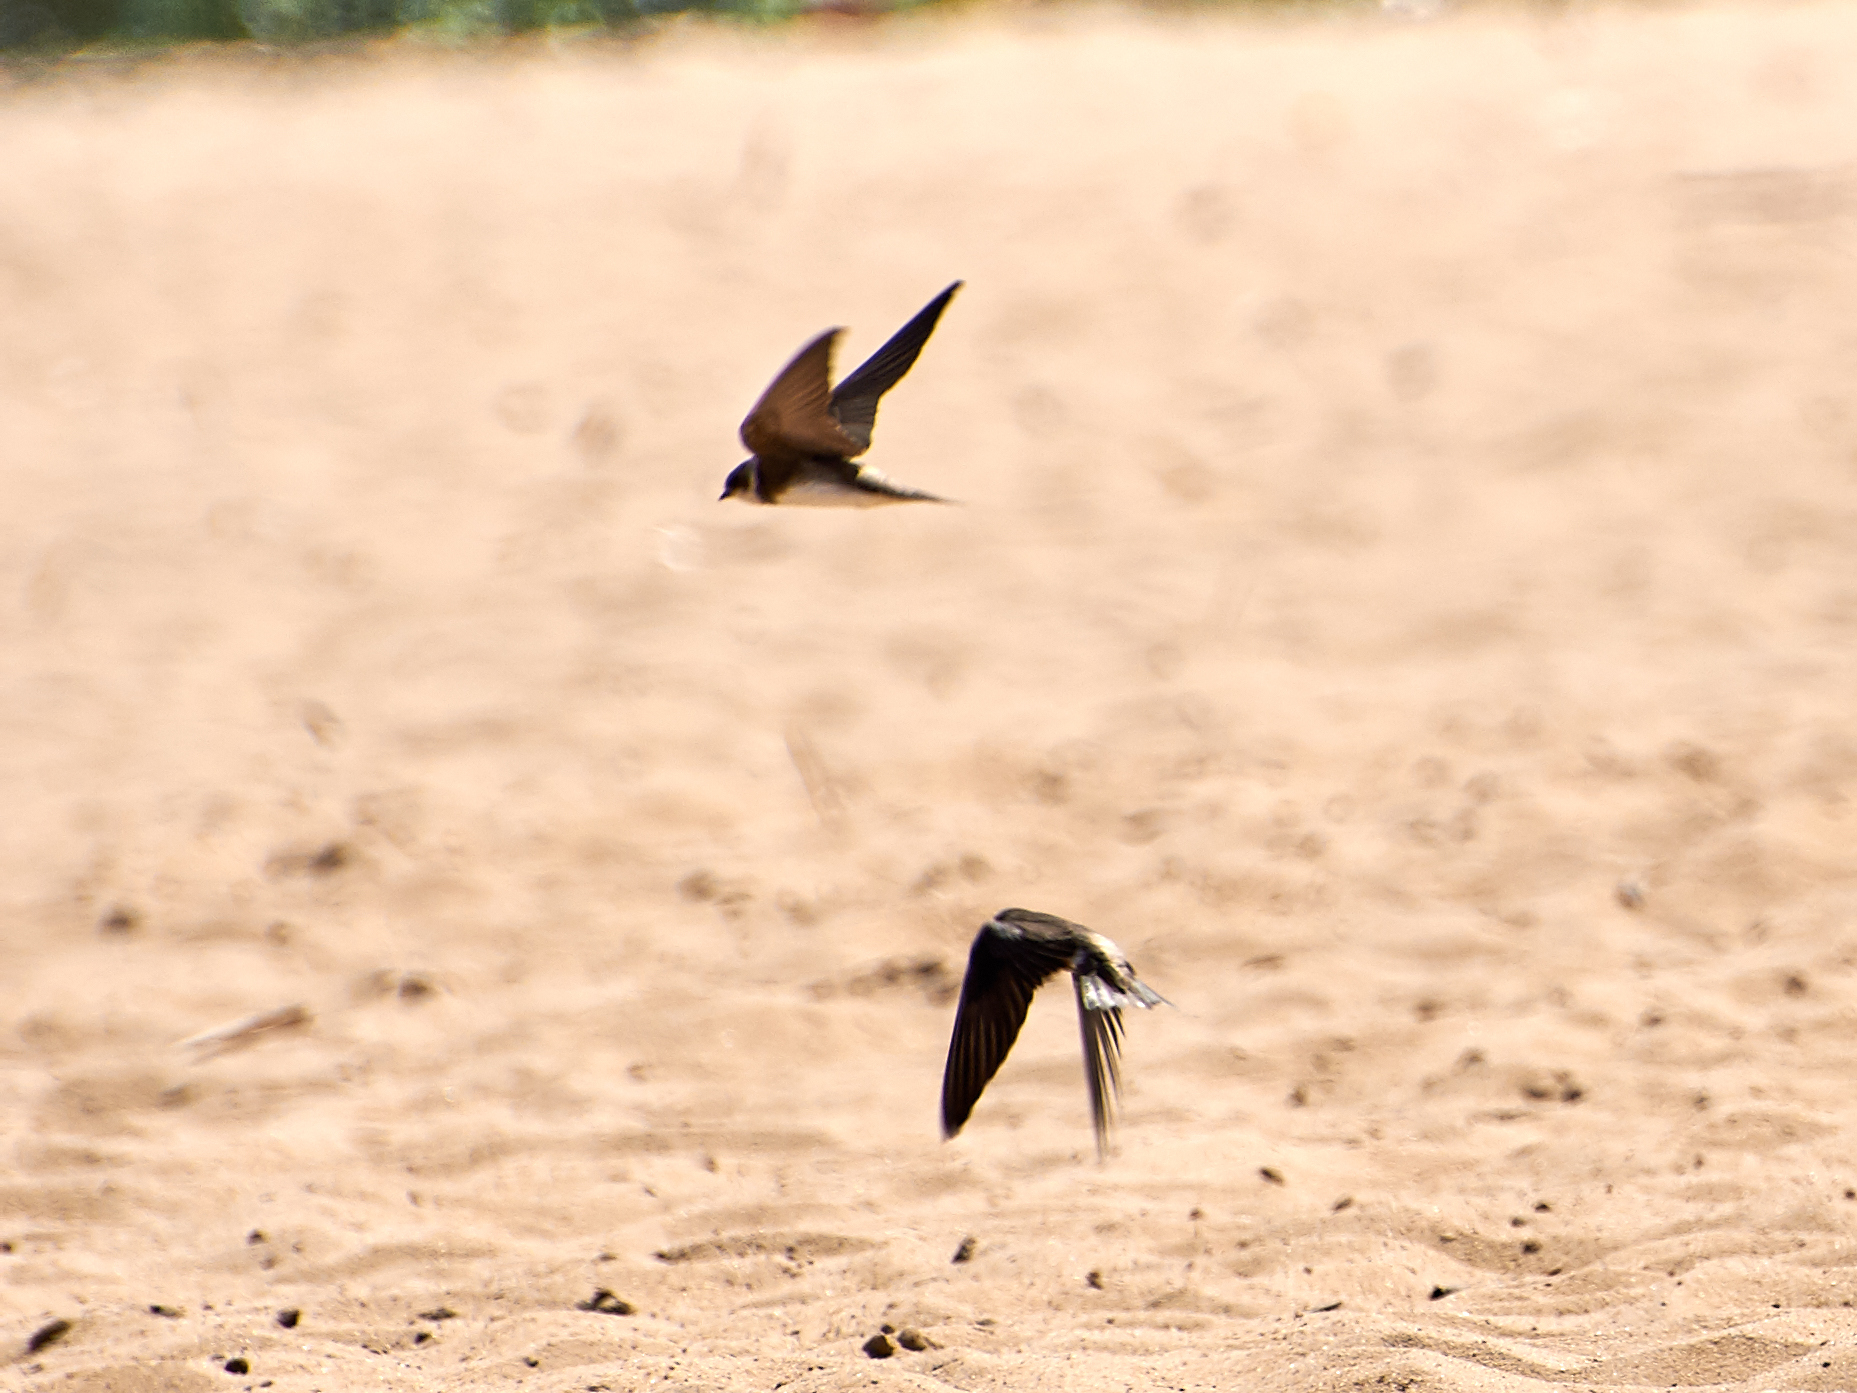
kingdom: Animalia
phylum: Chordata
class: Aves
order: Passeriformes
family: Hirundinidae
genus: Riparia
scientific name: Riparia riparia
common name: Sand martin
